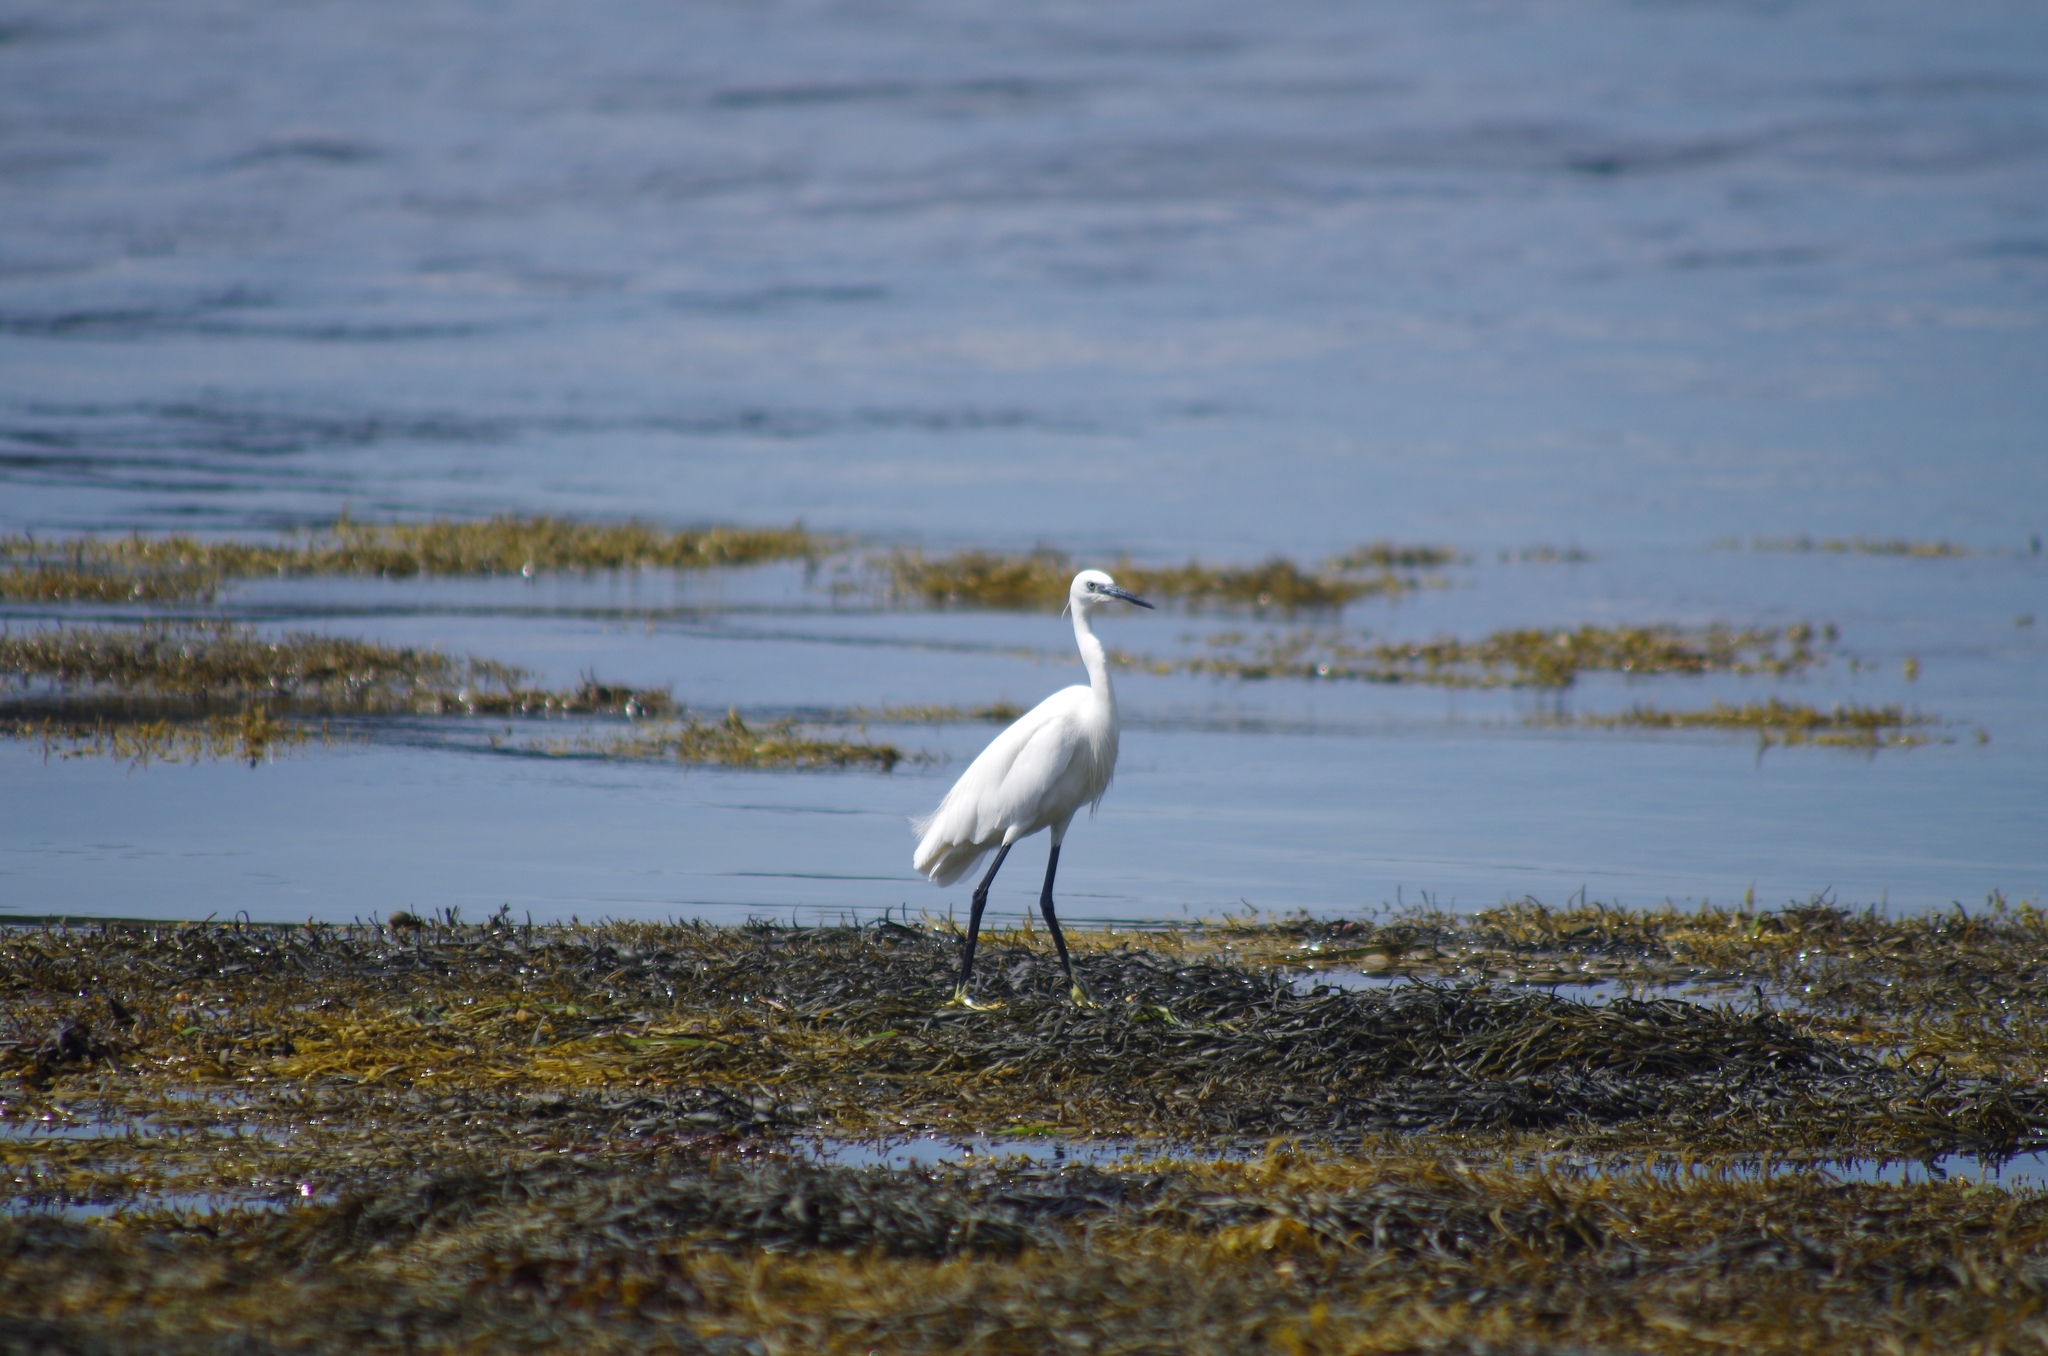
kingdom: Animalia
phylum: Chordata
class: Aves
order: Pelecaniformes
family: Ardeidae
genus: Egretta
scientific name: Egretta garzetta
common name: Little egret
